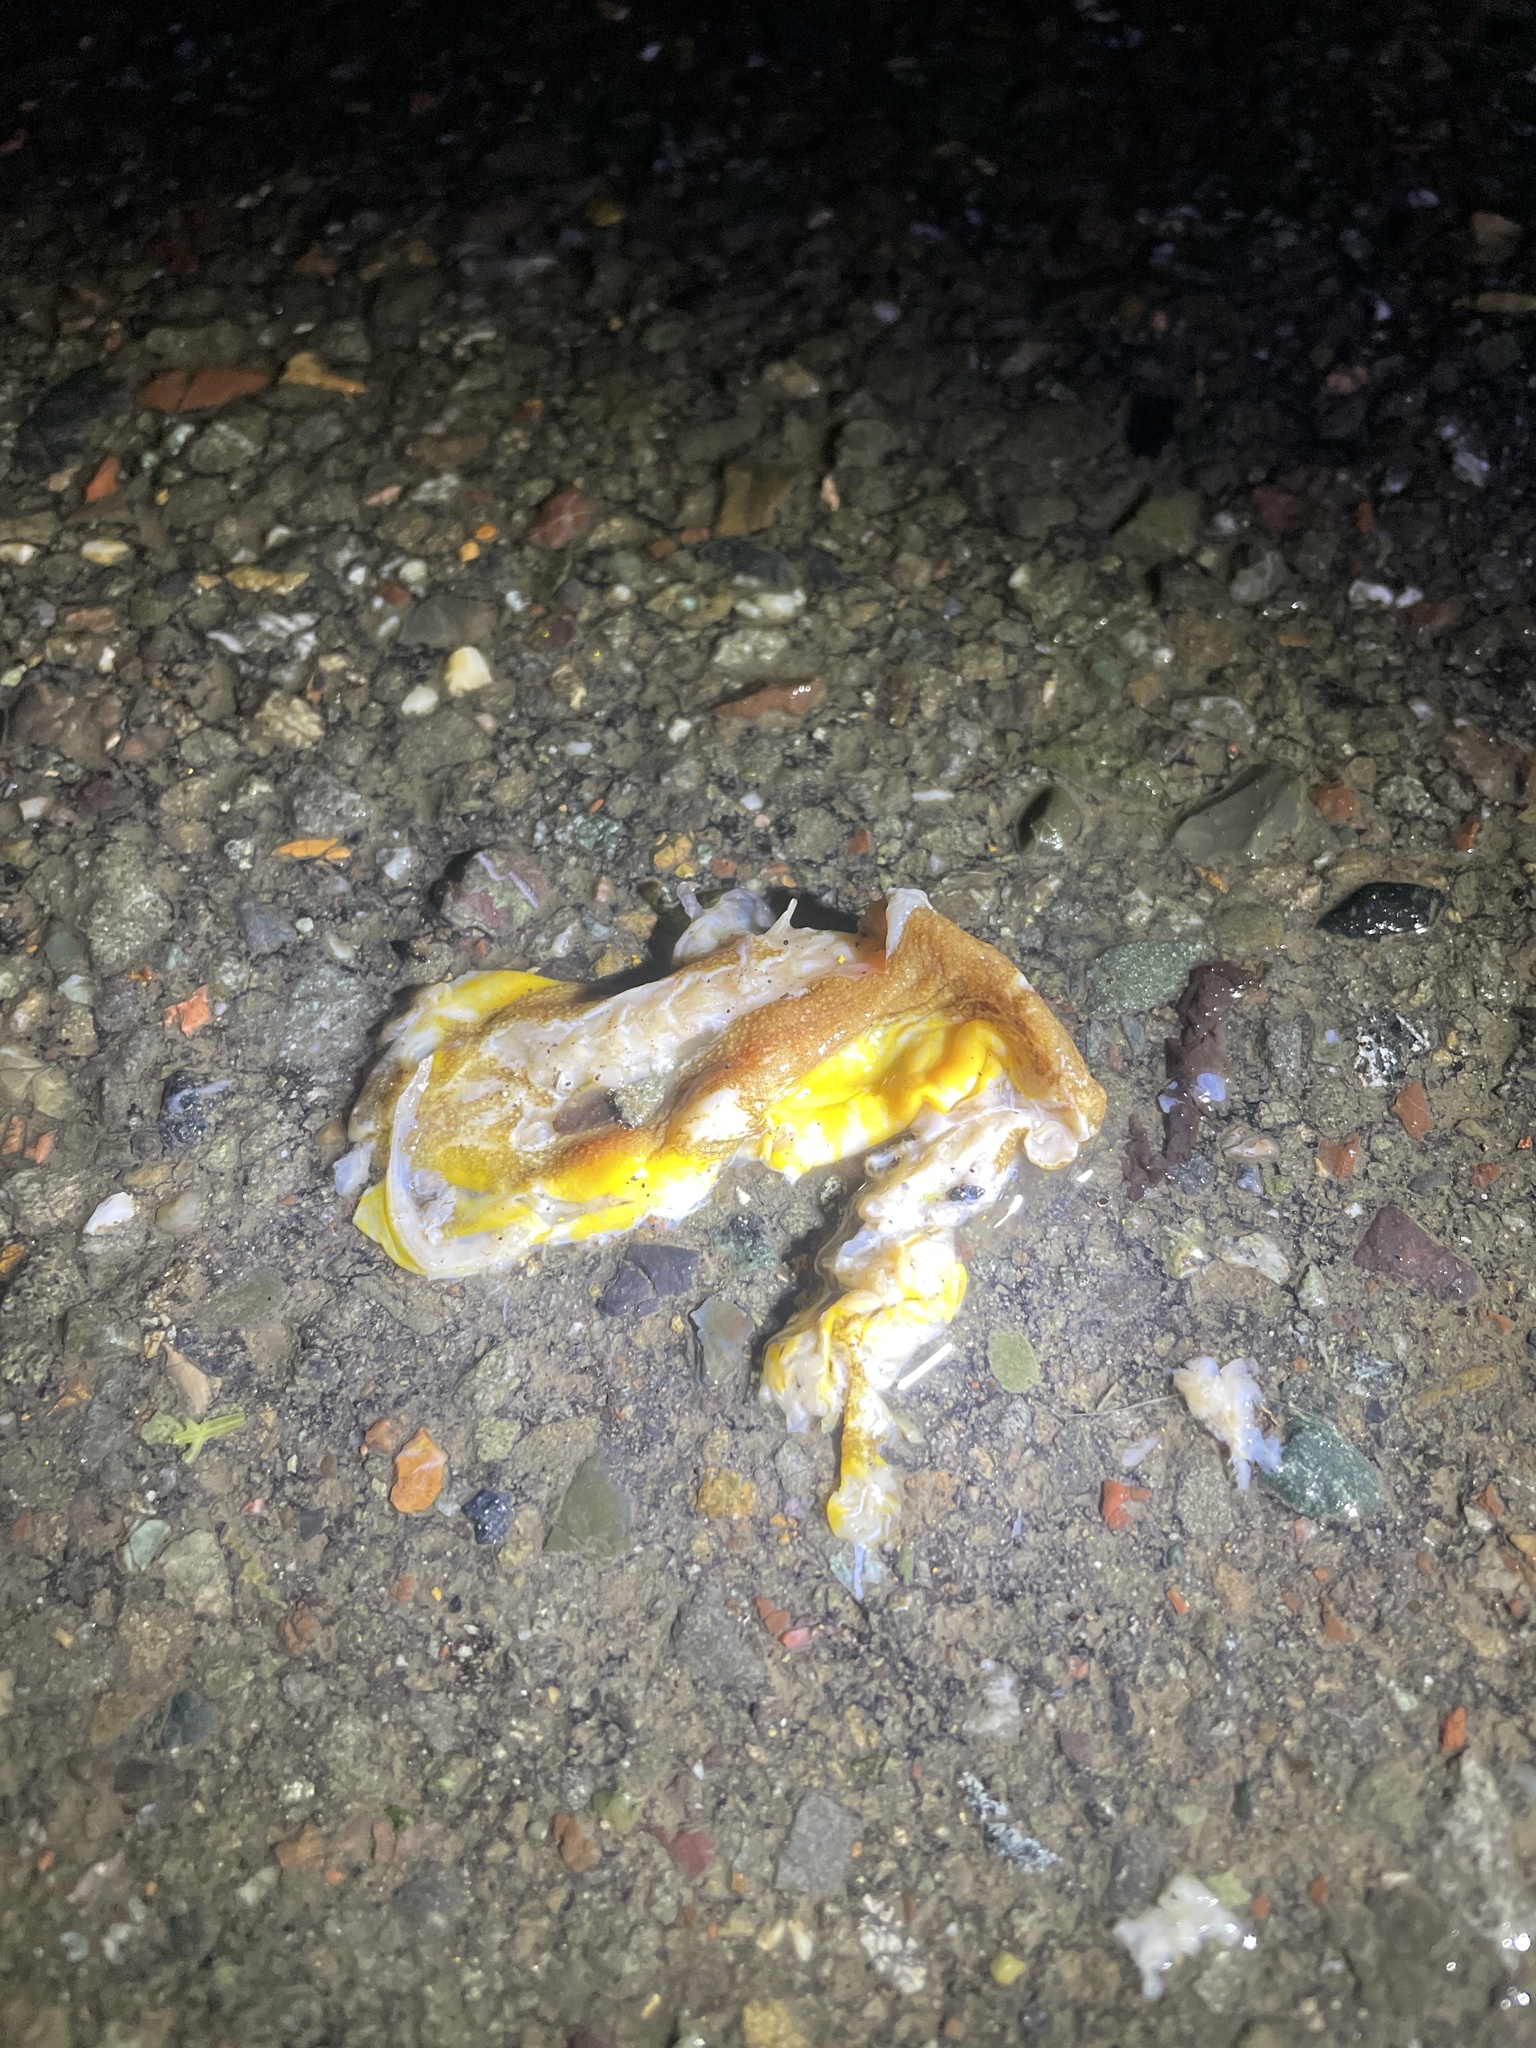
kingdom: Animalia
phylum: Chordata
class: Amphibia
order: Caudata
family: Salamandridae
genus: Taricha
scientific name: Taricha
